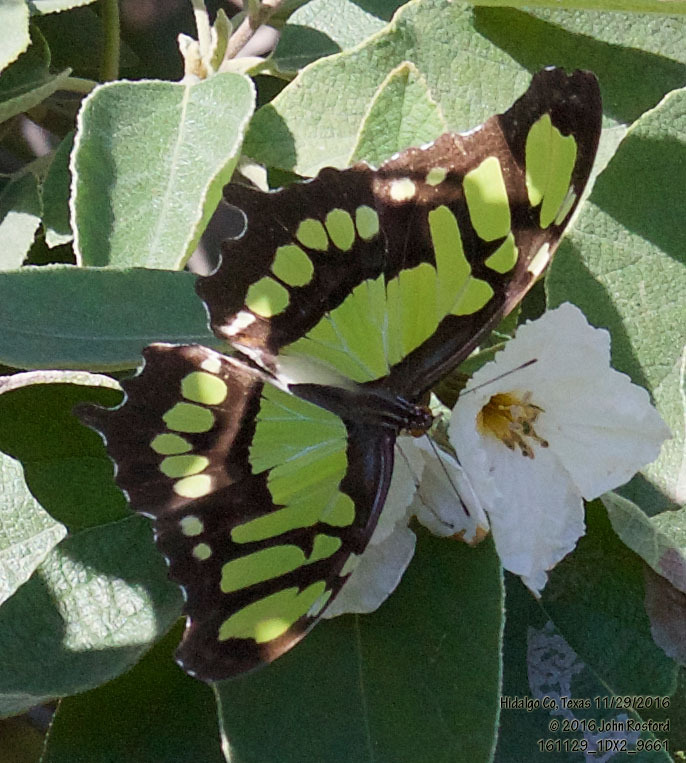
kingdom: Animalia
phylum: Arthropoda
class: Insecta
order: Lepidoptera
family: Nymphalidae
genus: Siproeta
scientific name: Siproeta stelenes
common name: Malachite
